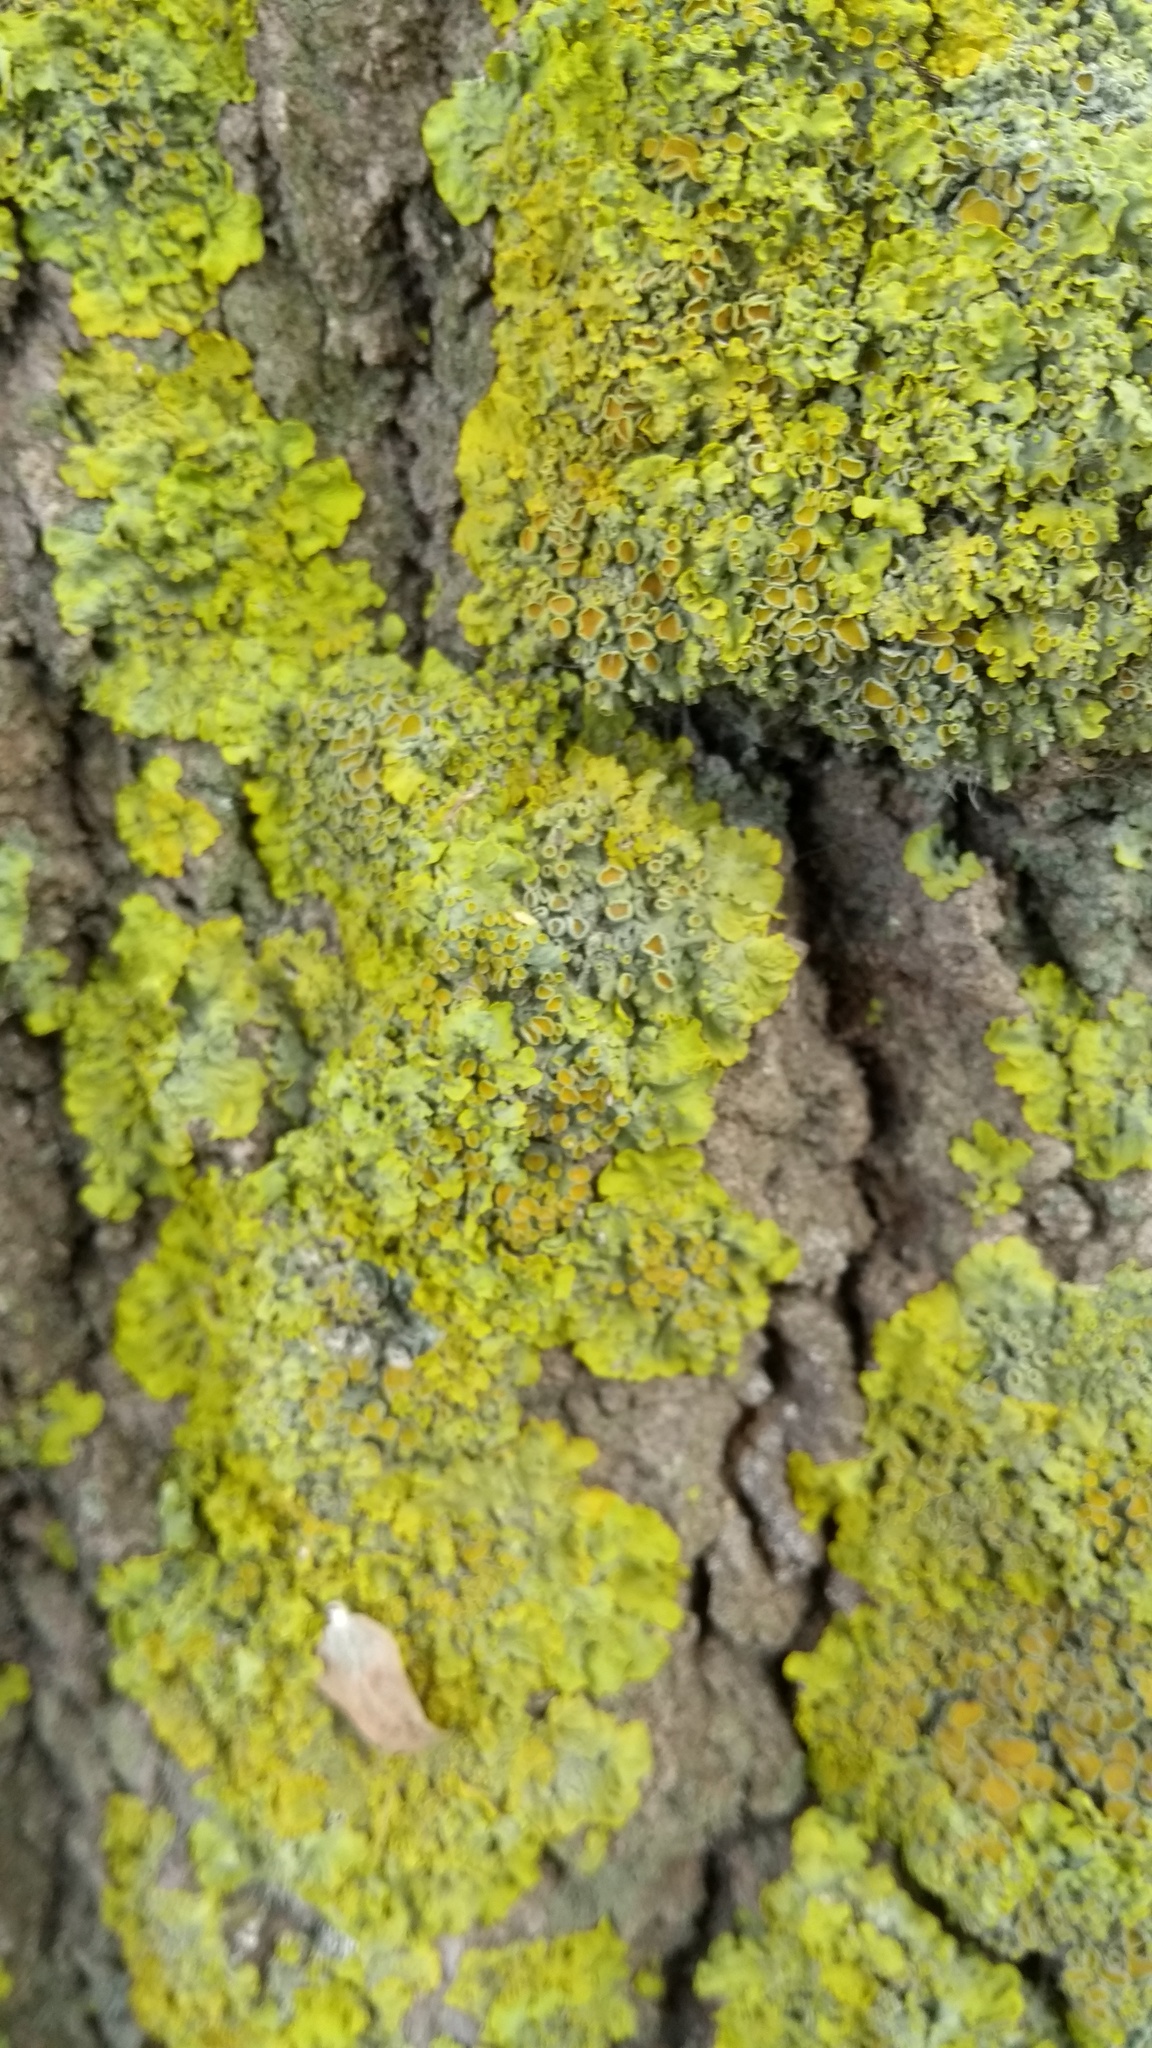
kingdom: Fungi
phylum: Ascomycota
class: Lecanoromycetes
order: Teloschistales
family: Teloschistaceae
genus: Xanthoria
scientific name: Xanthoria parietina
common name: Common orange lichen
